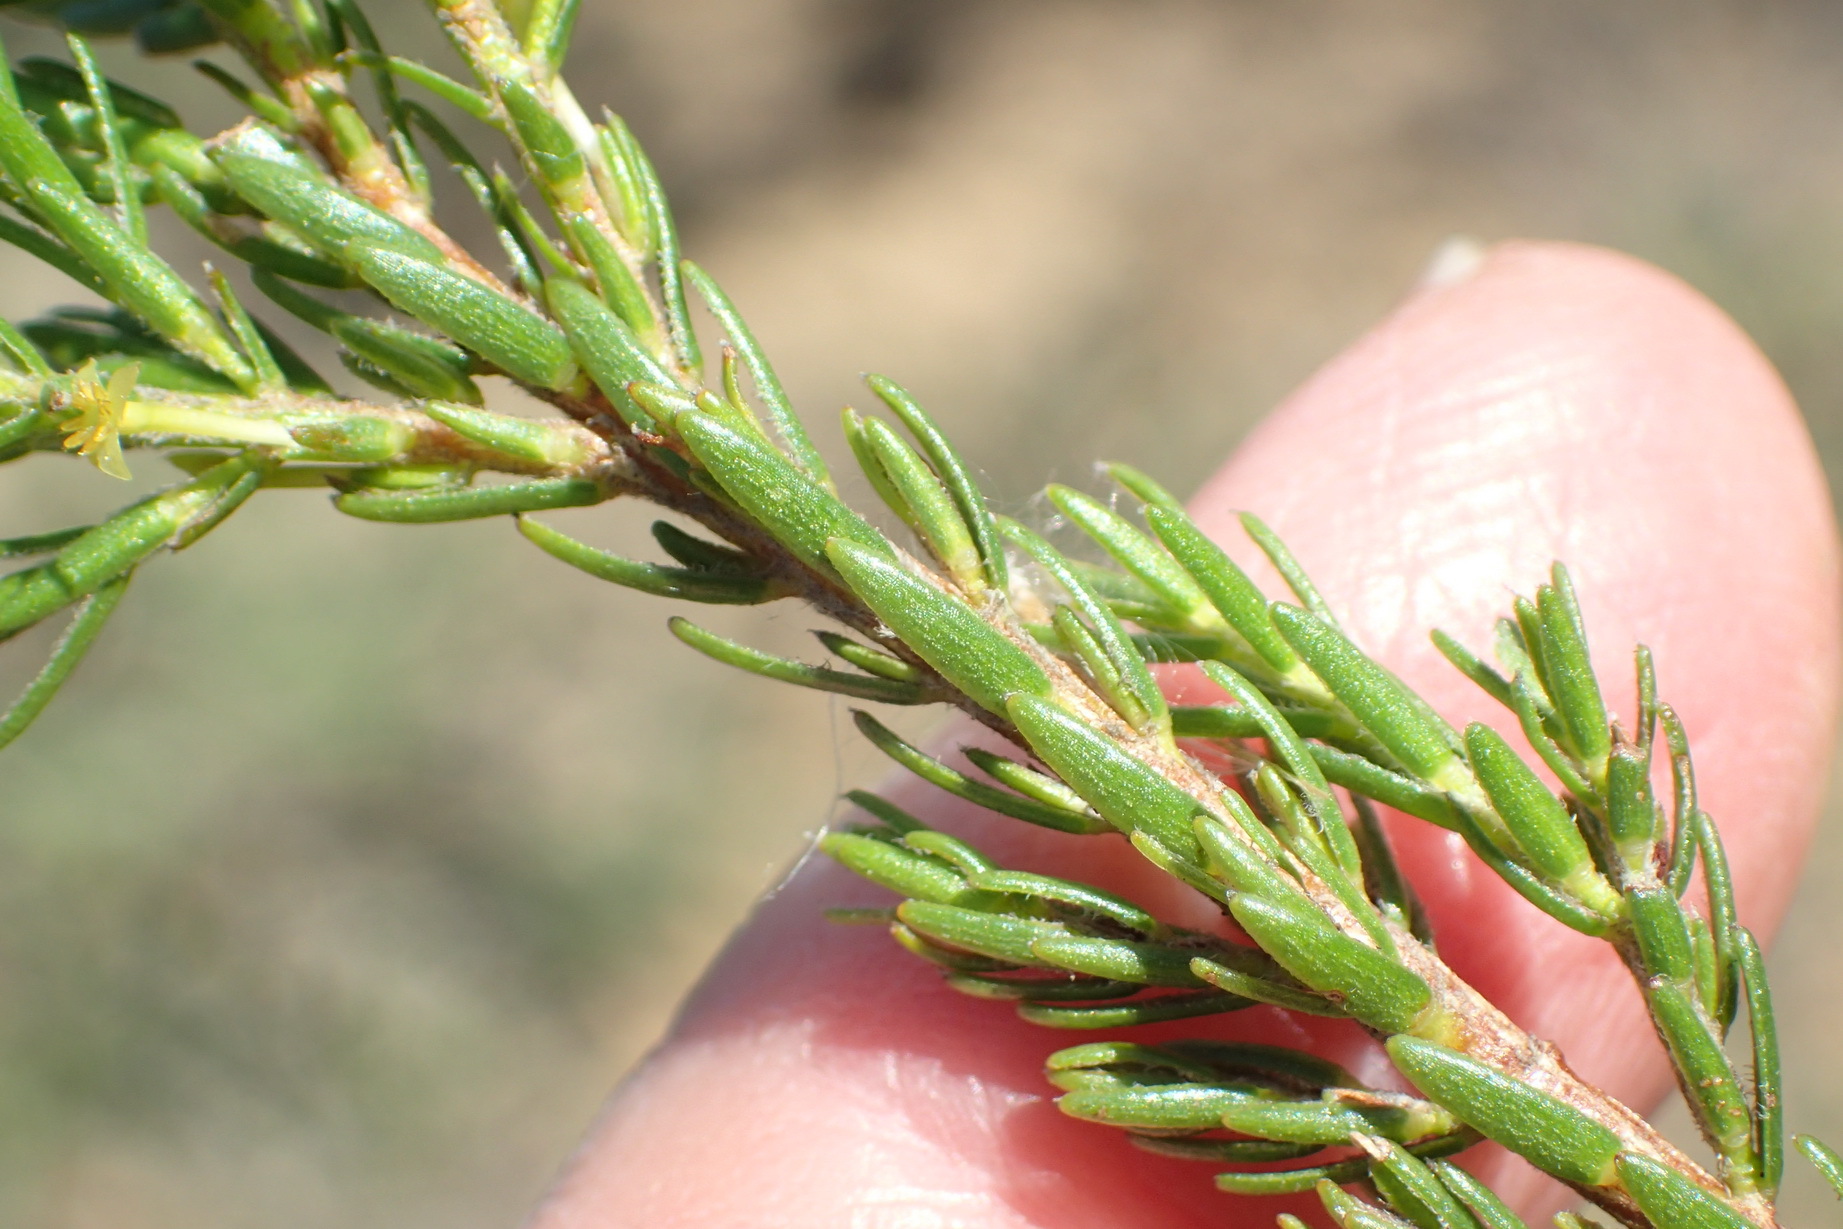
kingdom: Plantae
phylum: Tracheophyta
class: Magnoliopsida
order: Malvales
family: Thymelaeaceae
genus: Struthiola
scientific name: Struthiola parviflora
